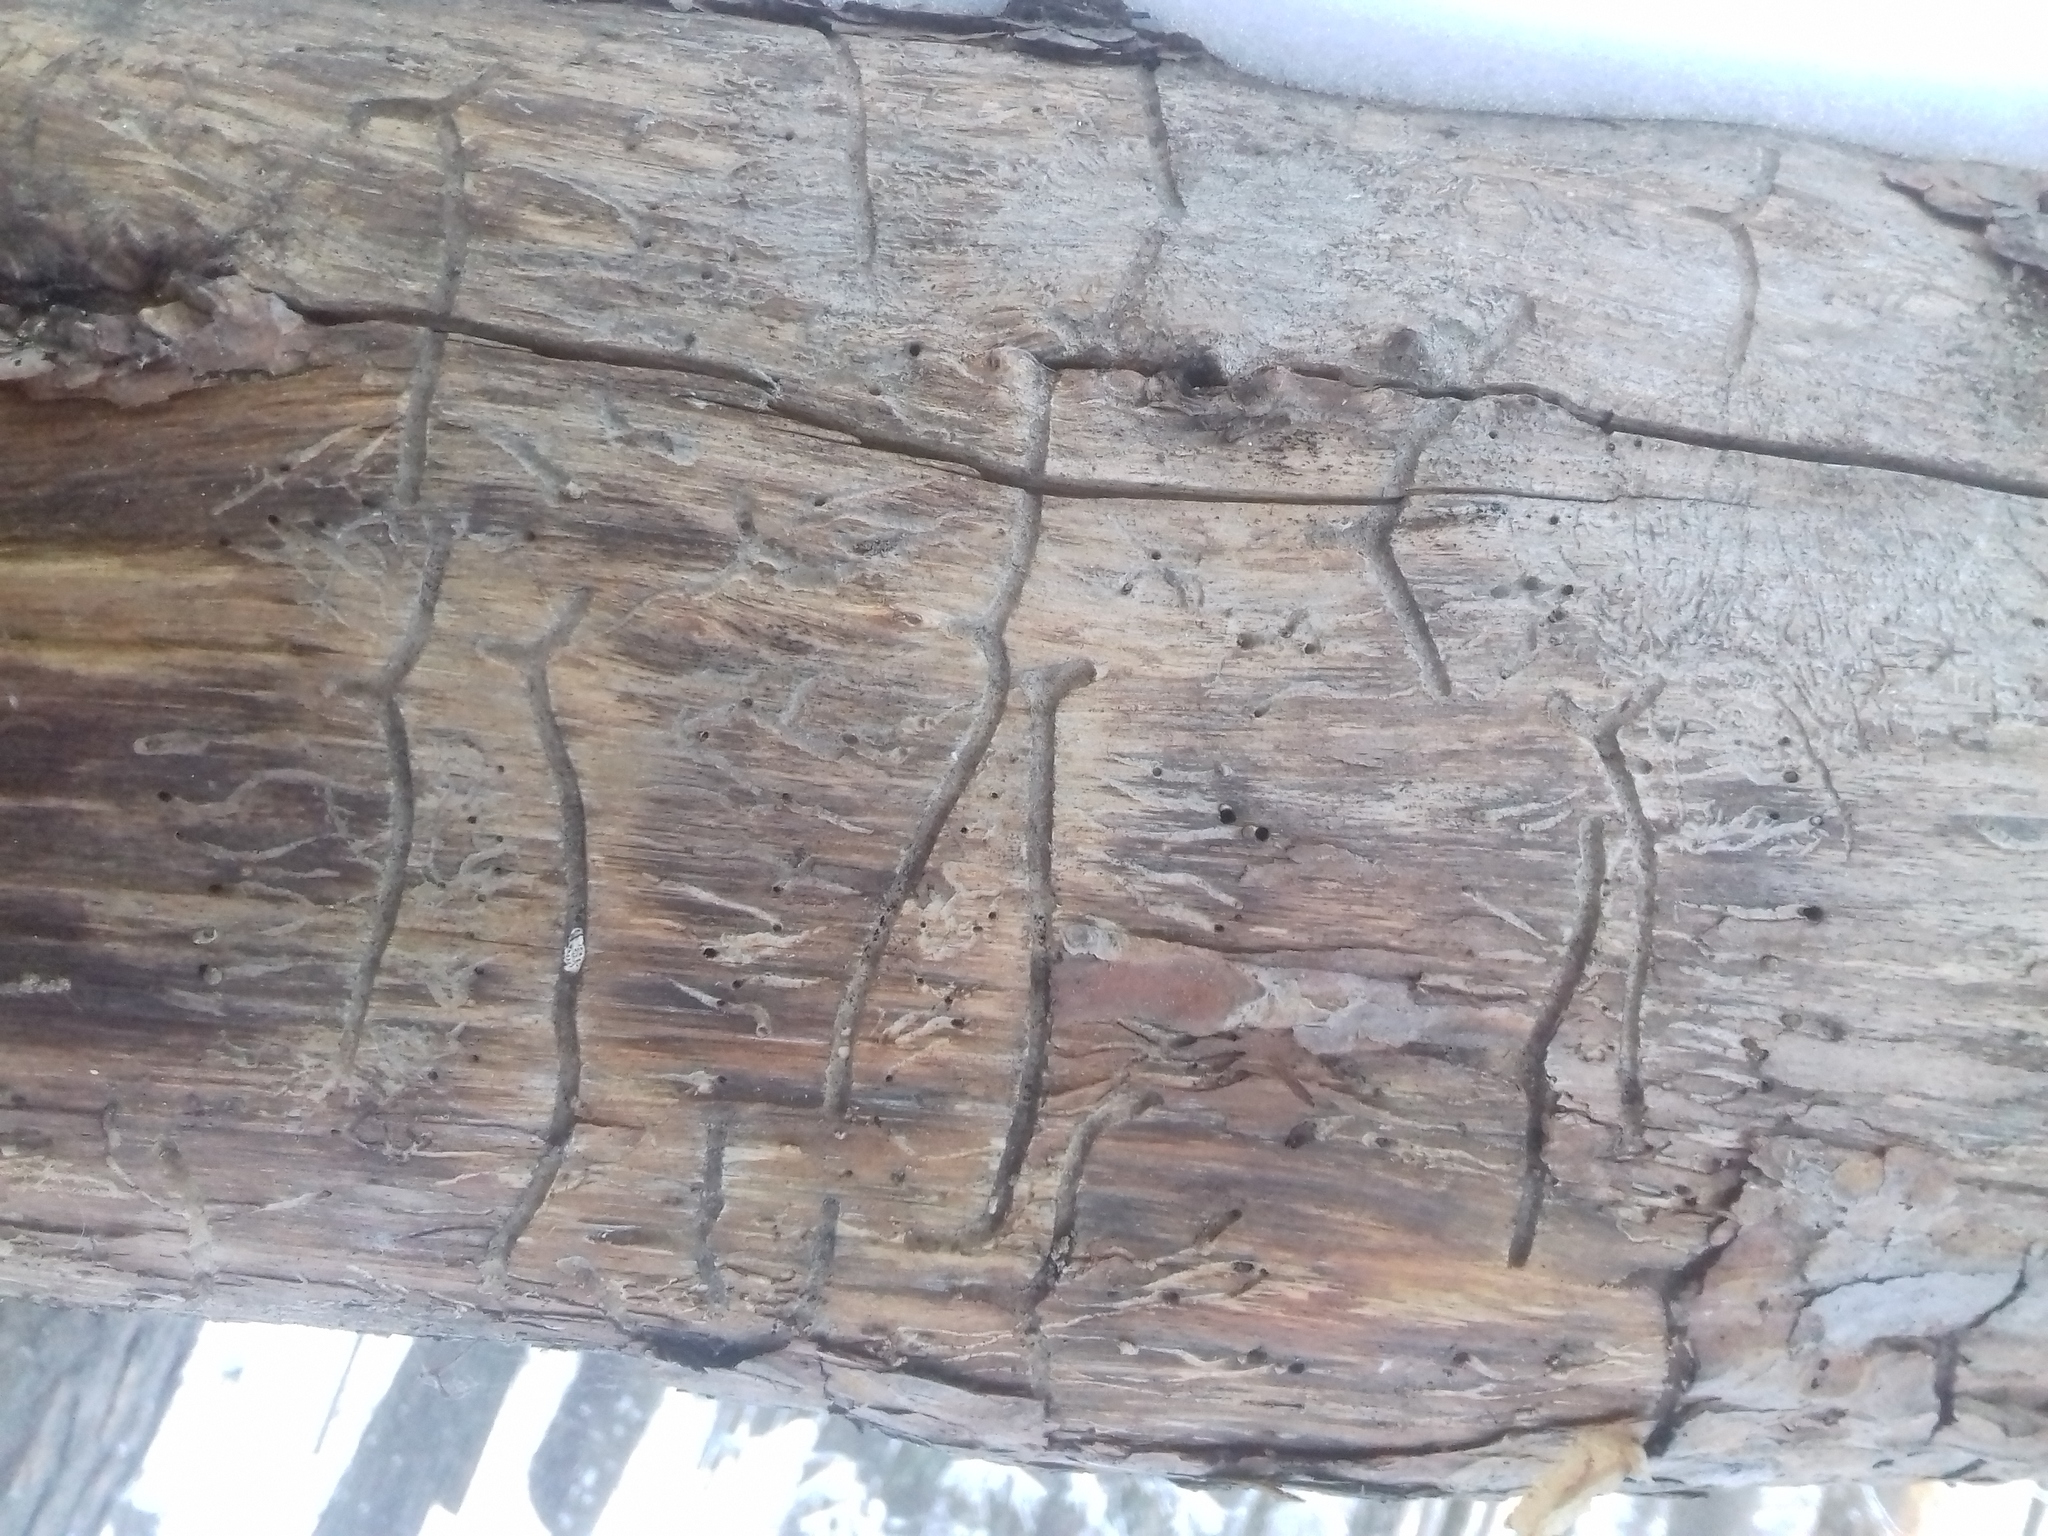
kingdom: Animalia
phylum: Arthropoda
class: Insecta
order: Coleoptera
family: Curculionidae
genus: Tomicus
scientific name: Tomicus minor
